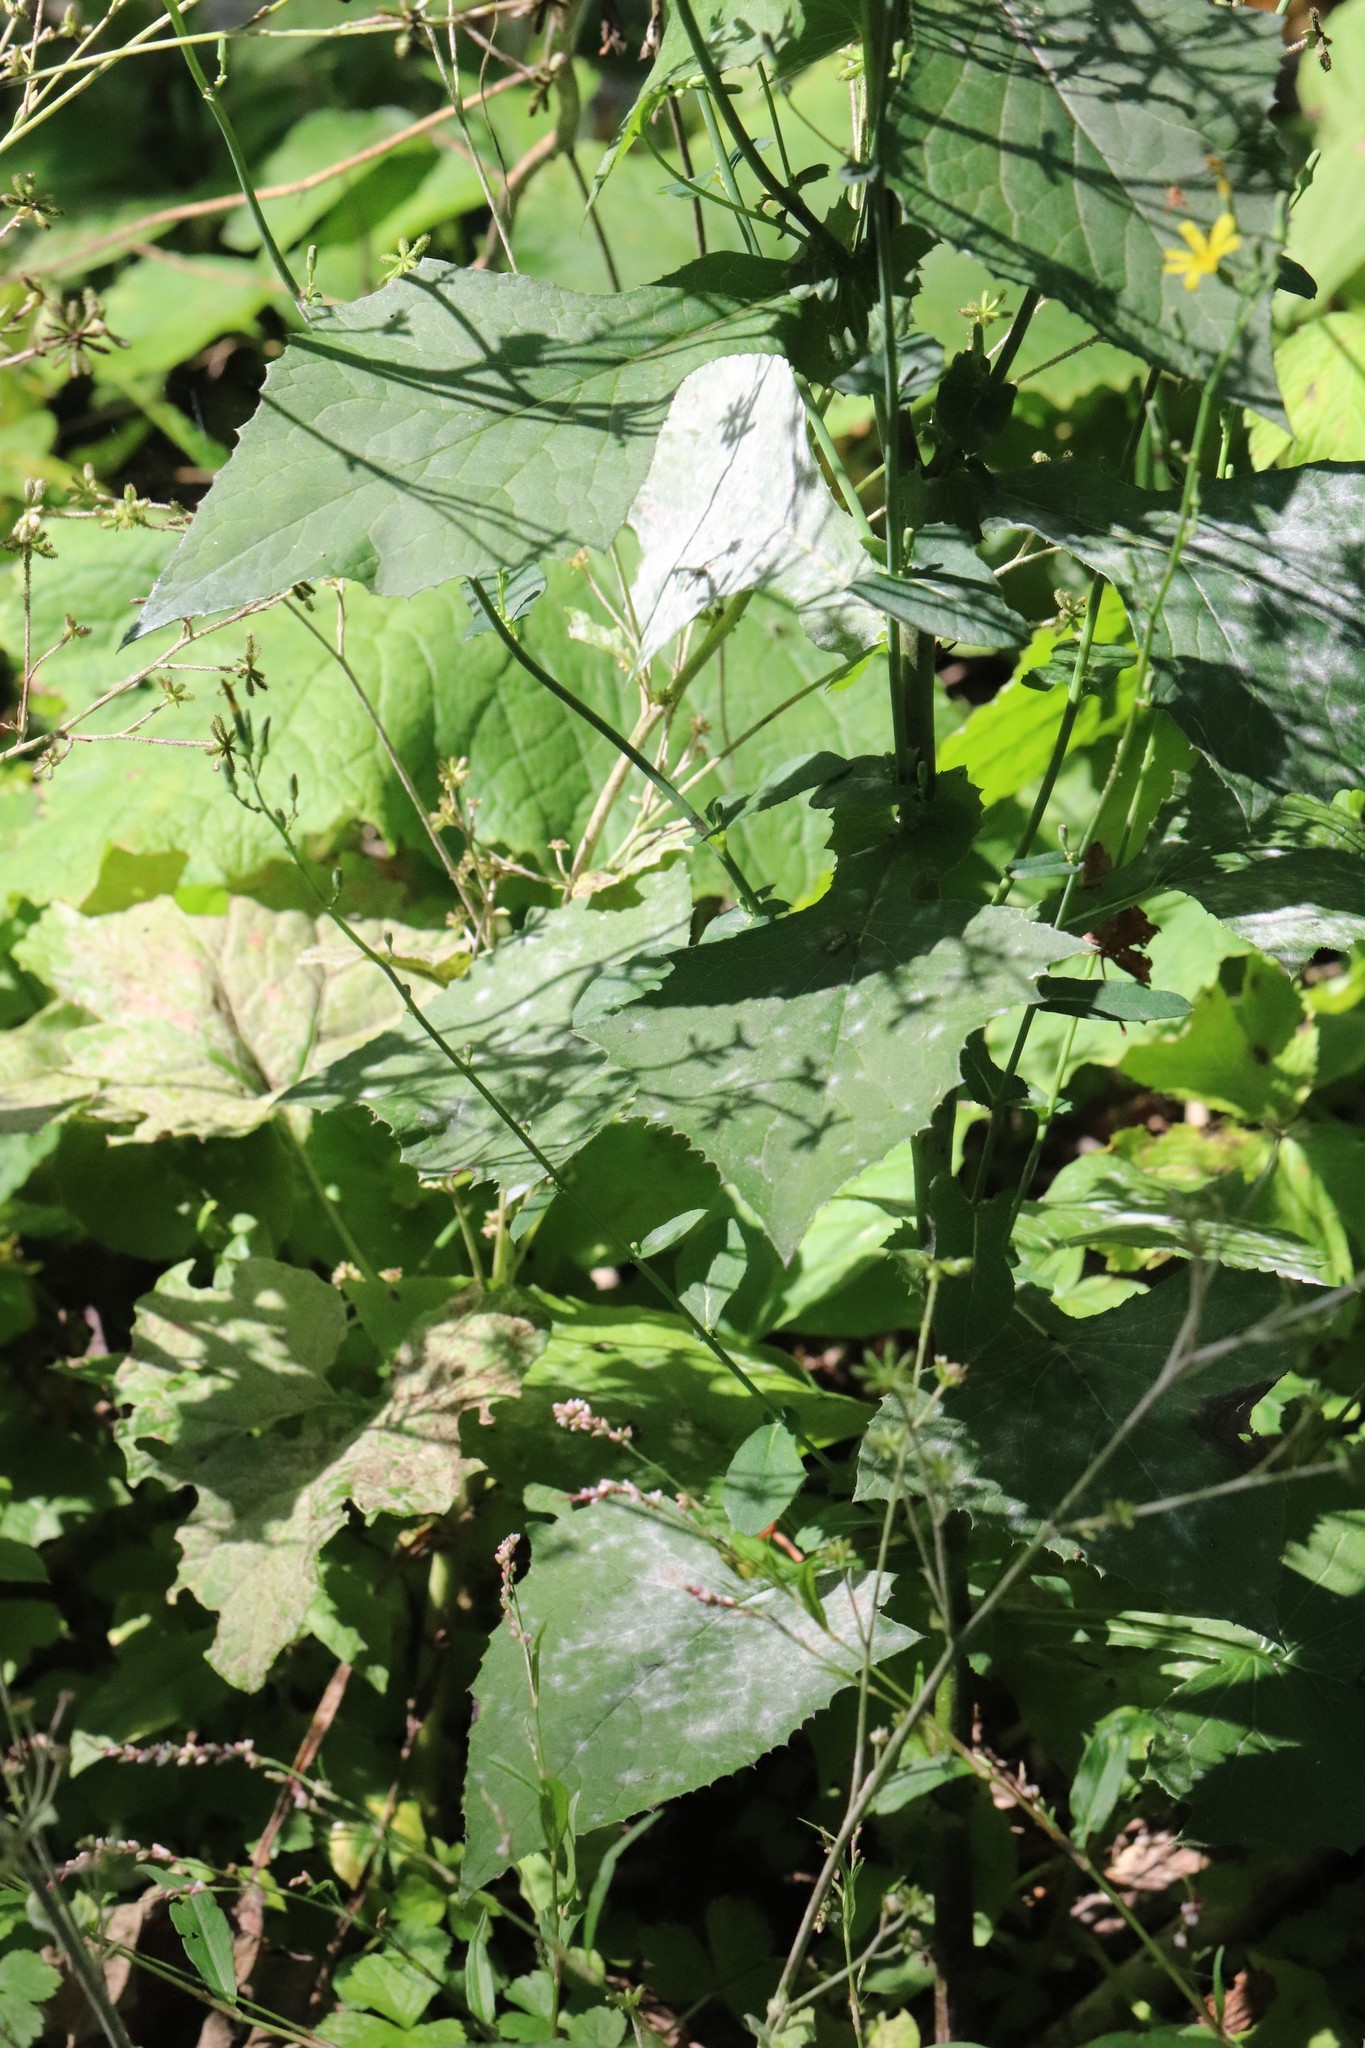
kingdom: Plantae
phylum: Tracheophyta
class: Magnoliopsida
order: Asterales
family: Asteraceae
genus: Lactuca
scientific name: Lactuca triangulata
